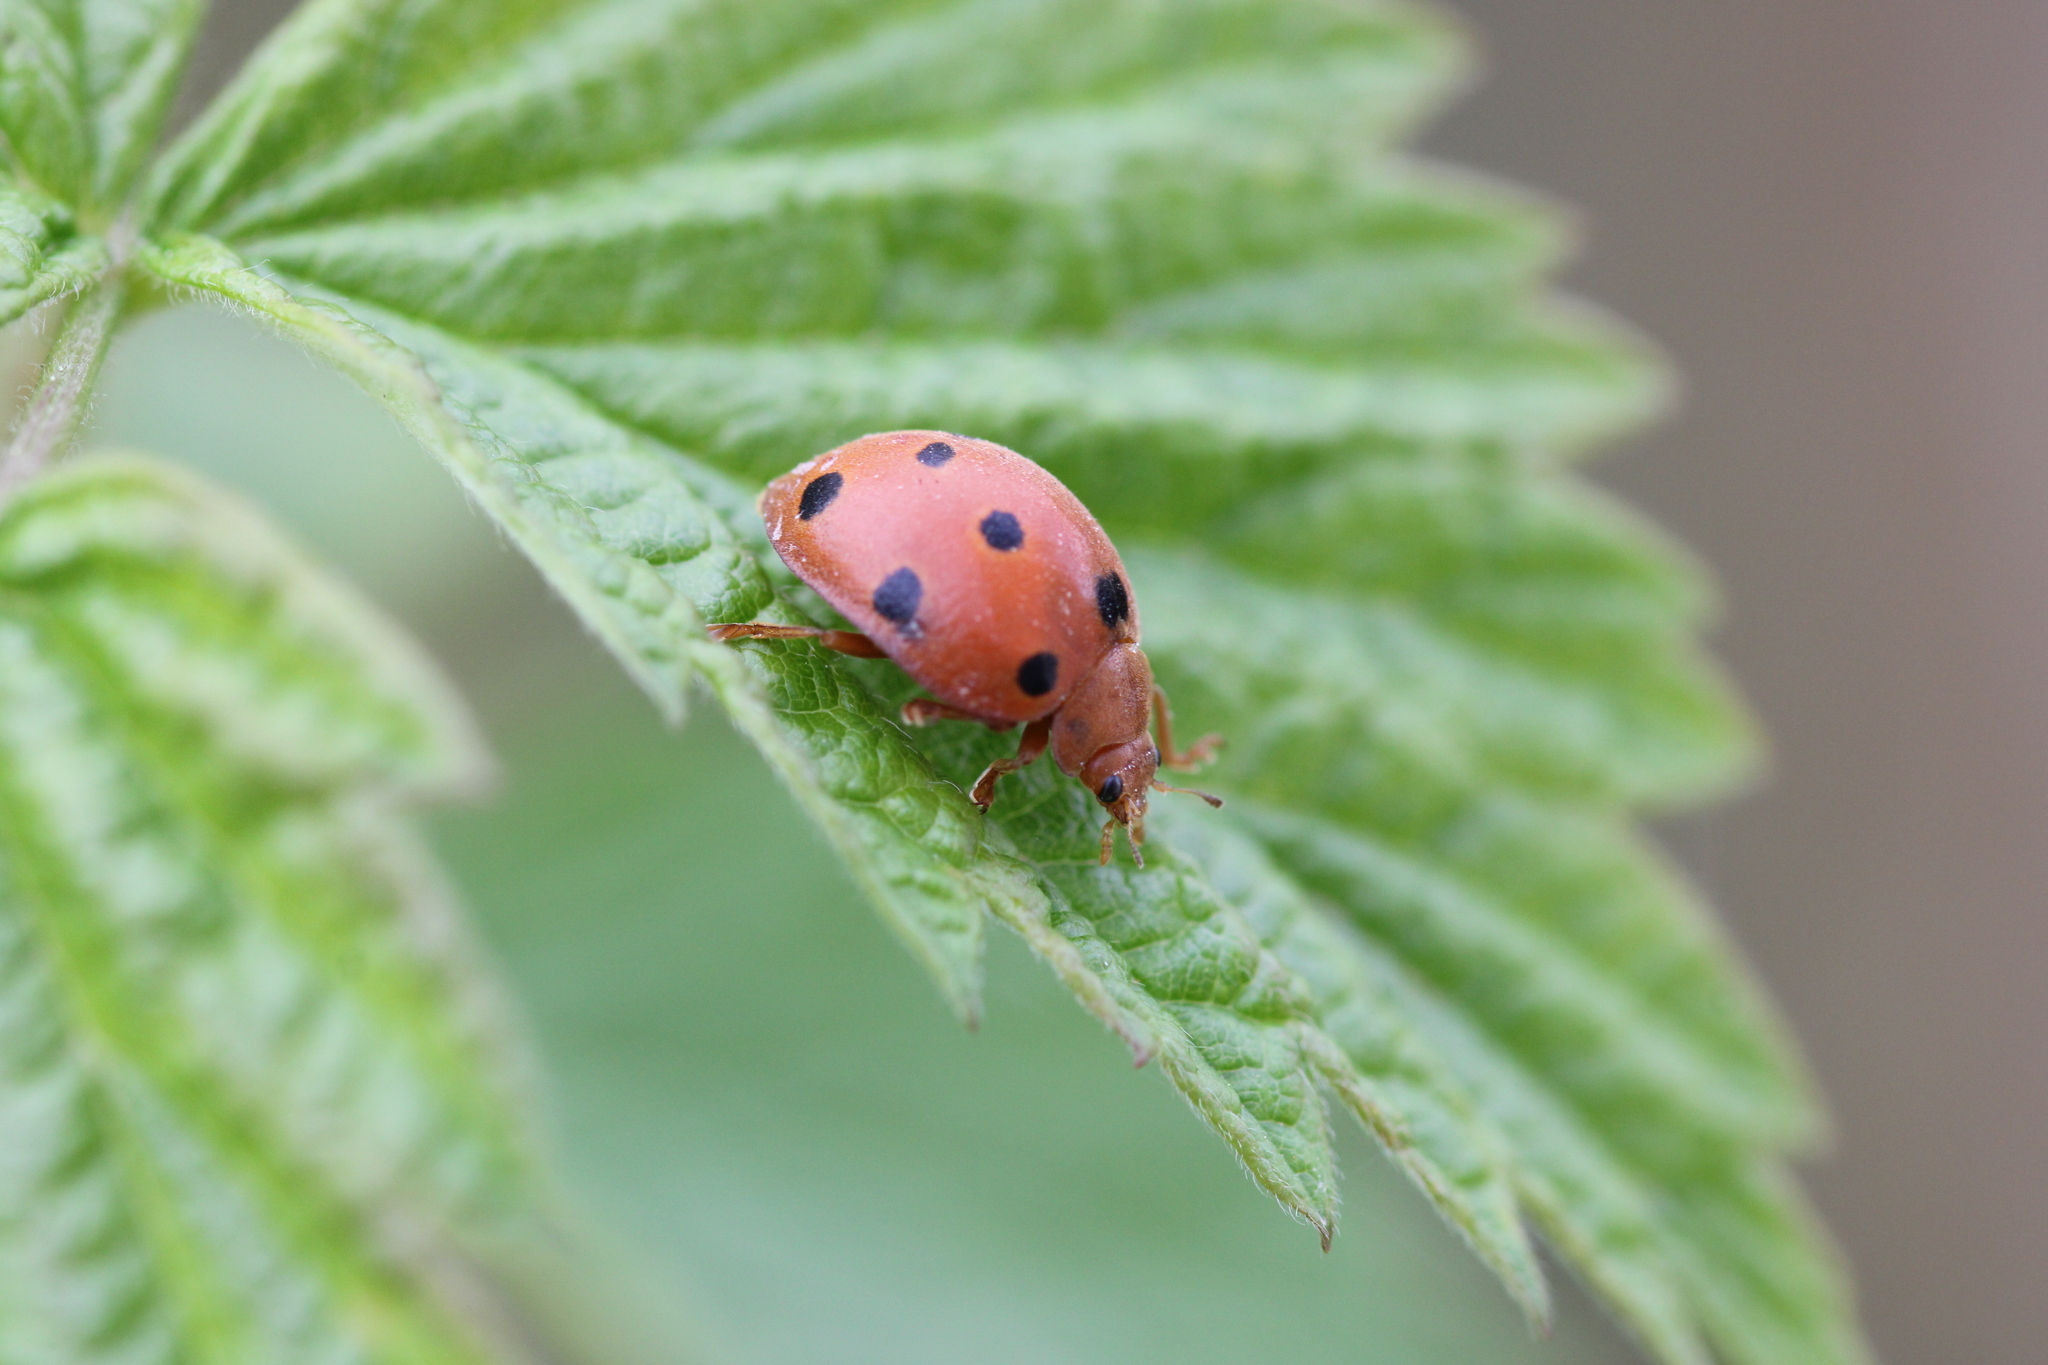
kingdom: Animalia
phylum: Arthropoda
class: Insecta
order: Coleoptera
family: Coccinellidae
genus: Henosepilachna
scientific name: Henosepilachna argus
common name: Bryony ladybird
